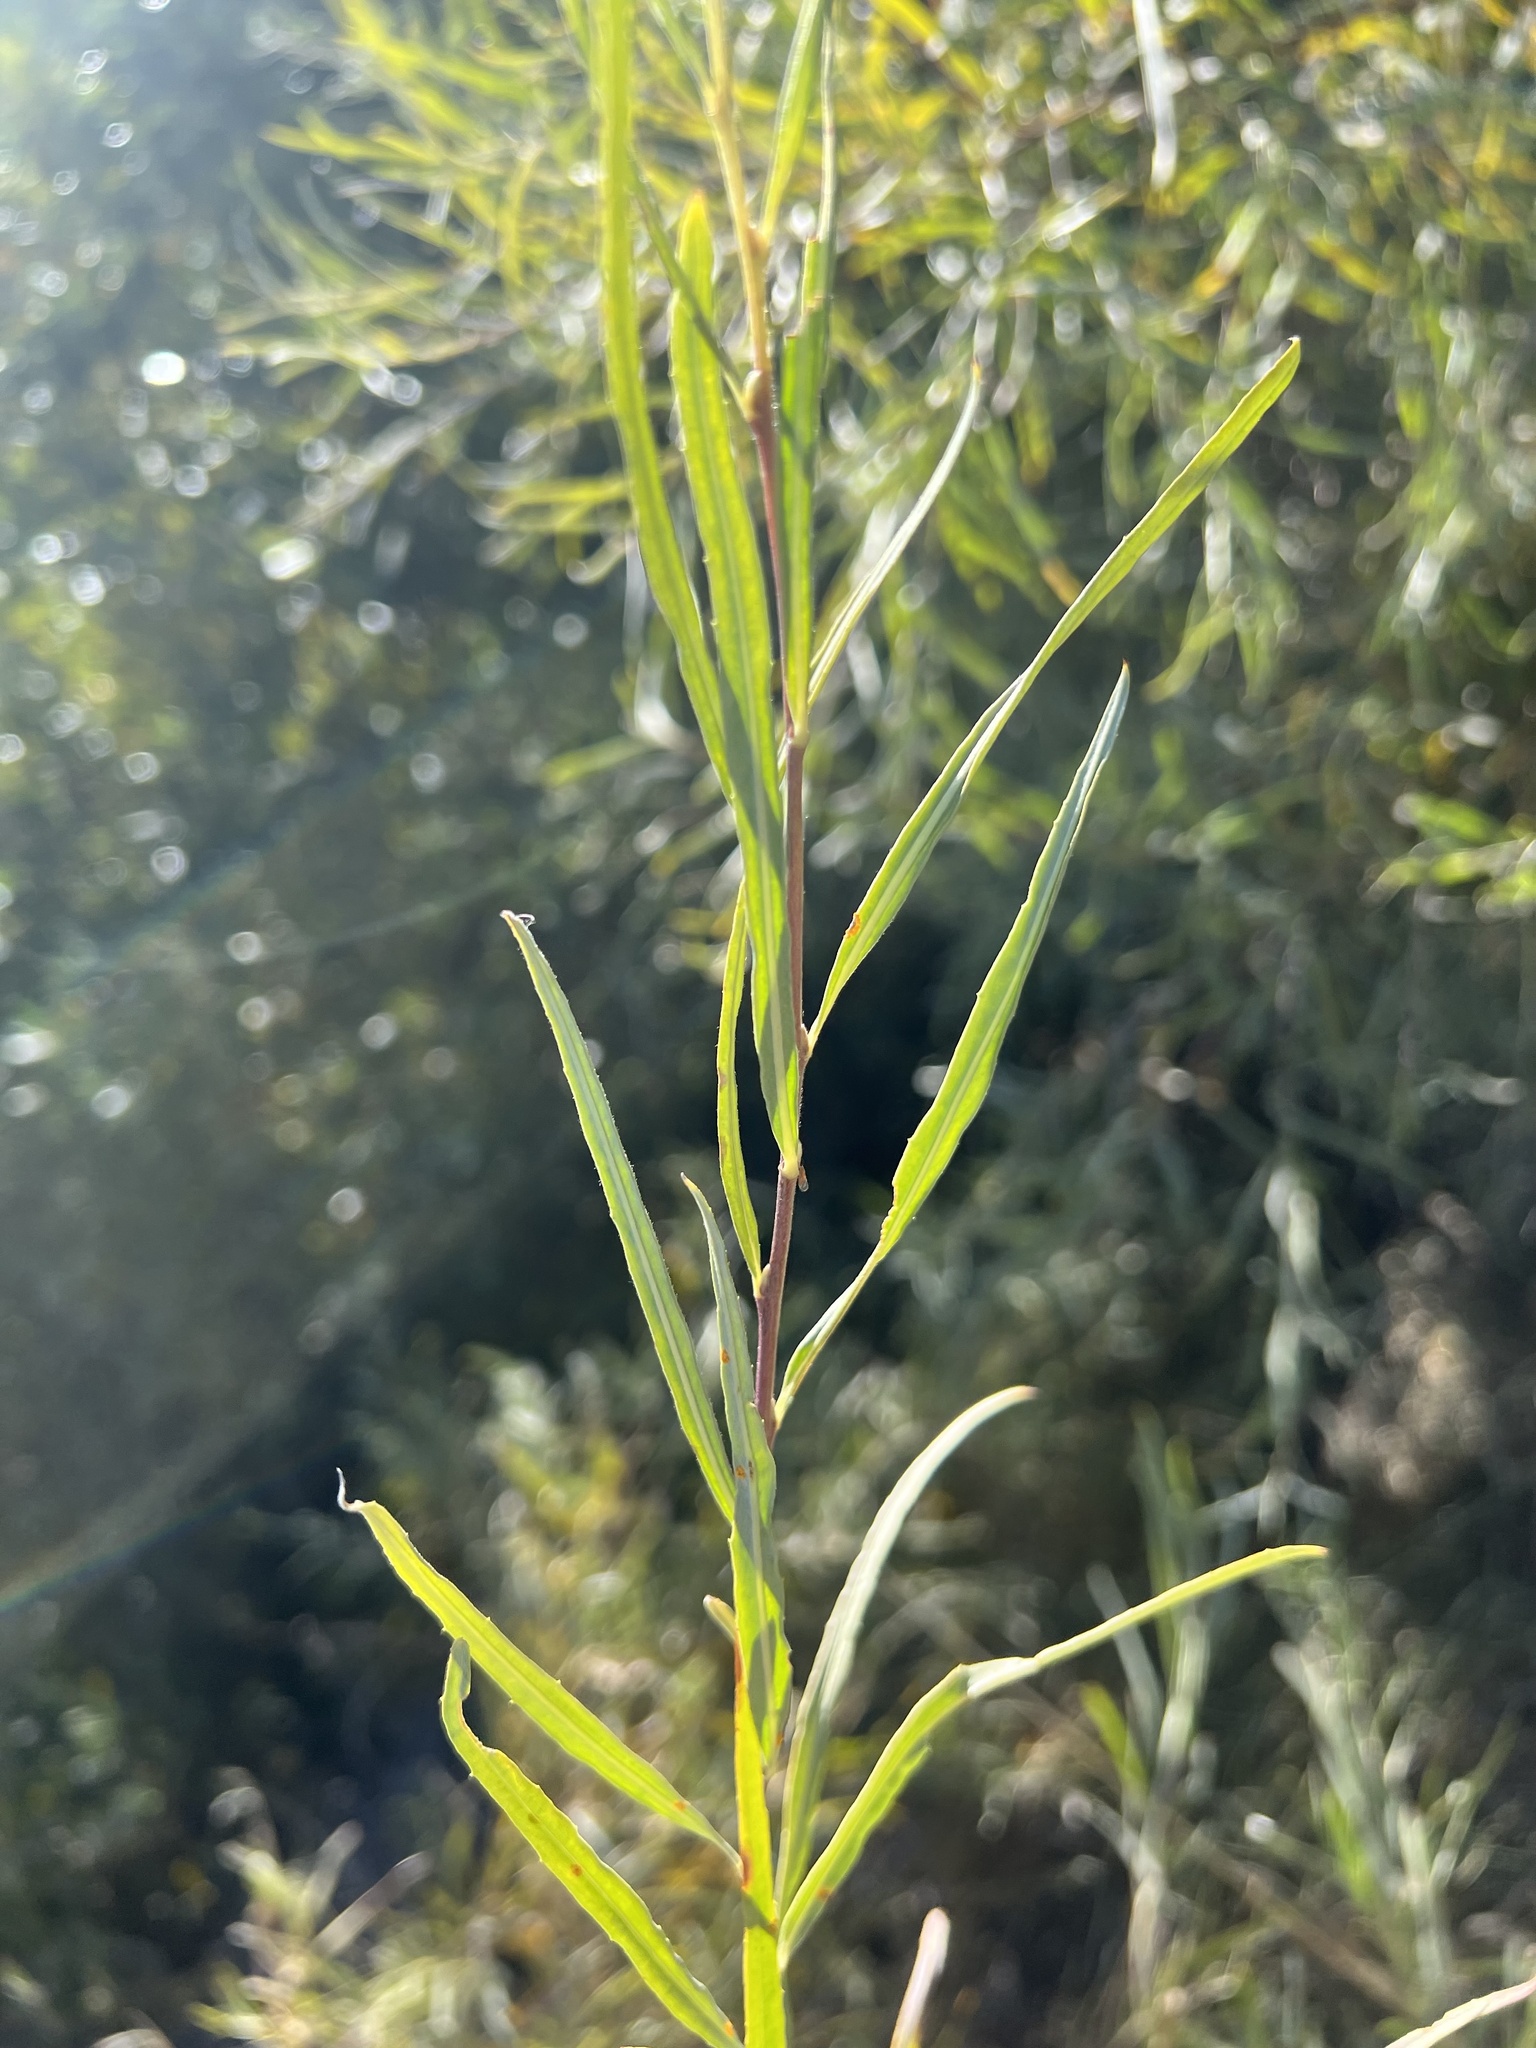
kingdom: Plantae
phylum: Tracheophyta
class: Magnoliopsida
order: Malpighiales
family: Salicaceae
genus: Salix
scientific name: Salix exigua
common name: Coyote willow
